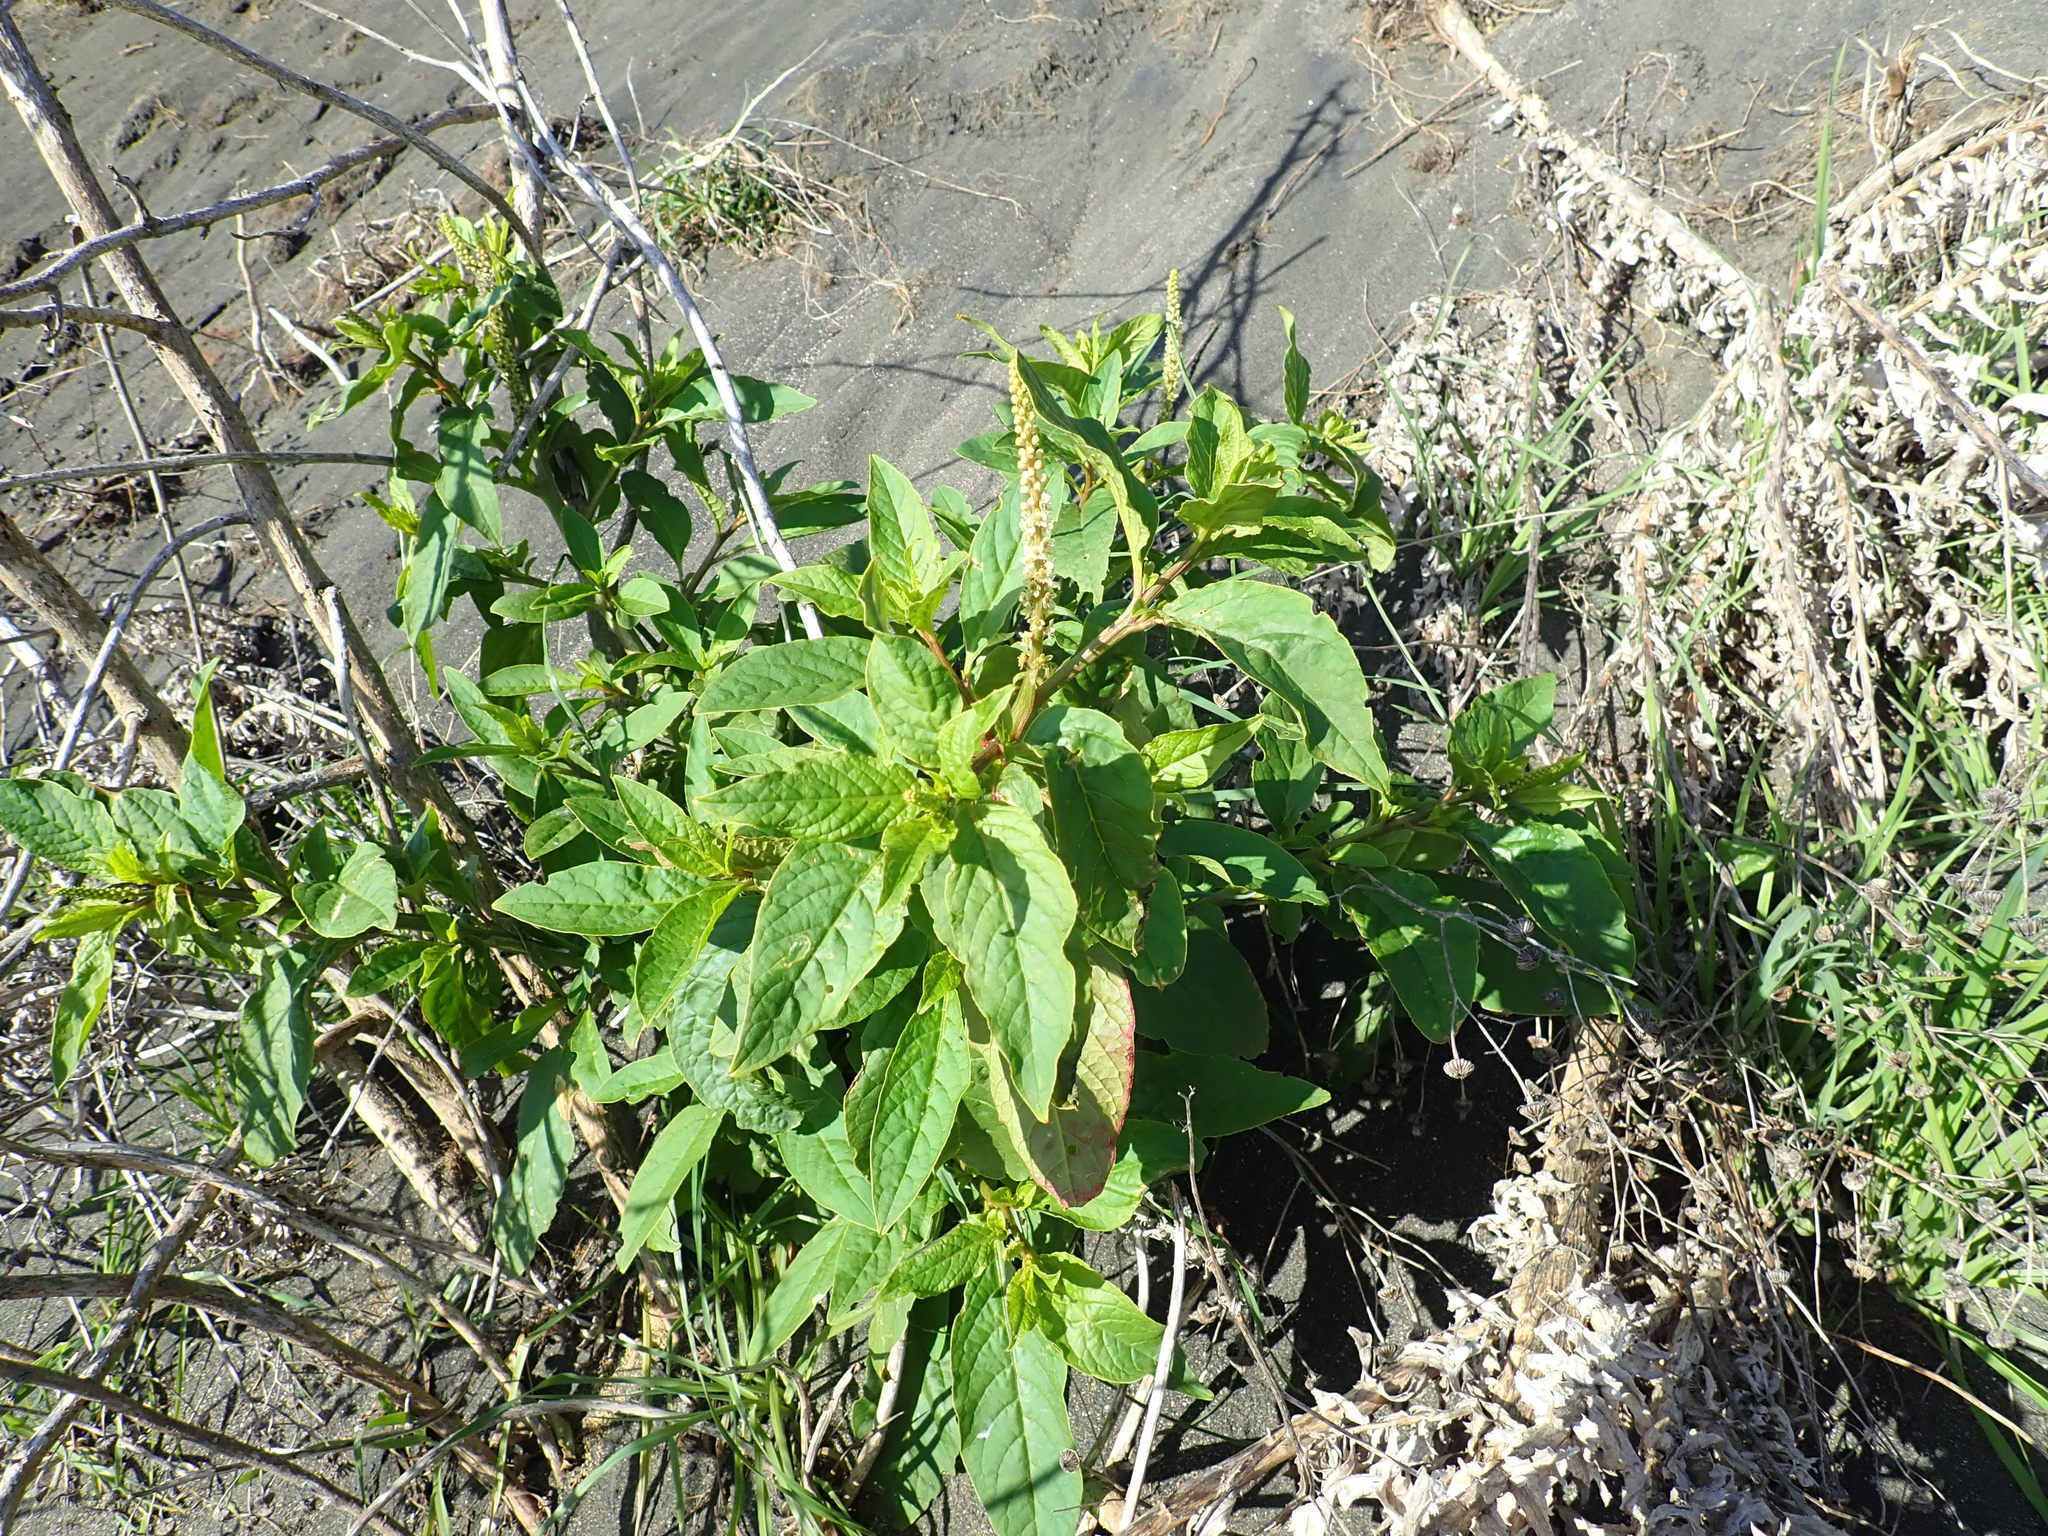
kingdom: Plantae
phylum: Tracheophyta
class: Magnoliopsida
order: Caryophyllales
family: Phytolaccaceae
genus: Phytolacca
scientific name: Phytolacca icosandra
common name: Button pokeweed
